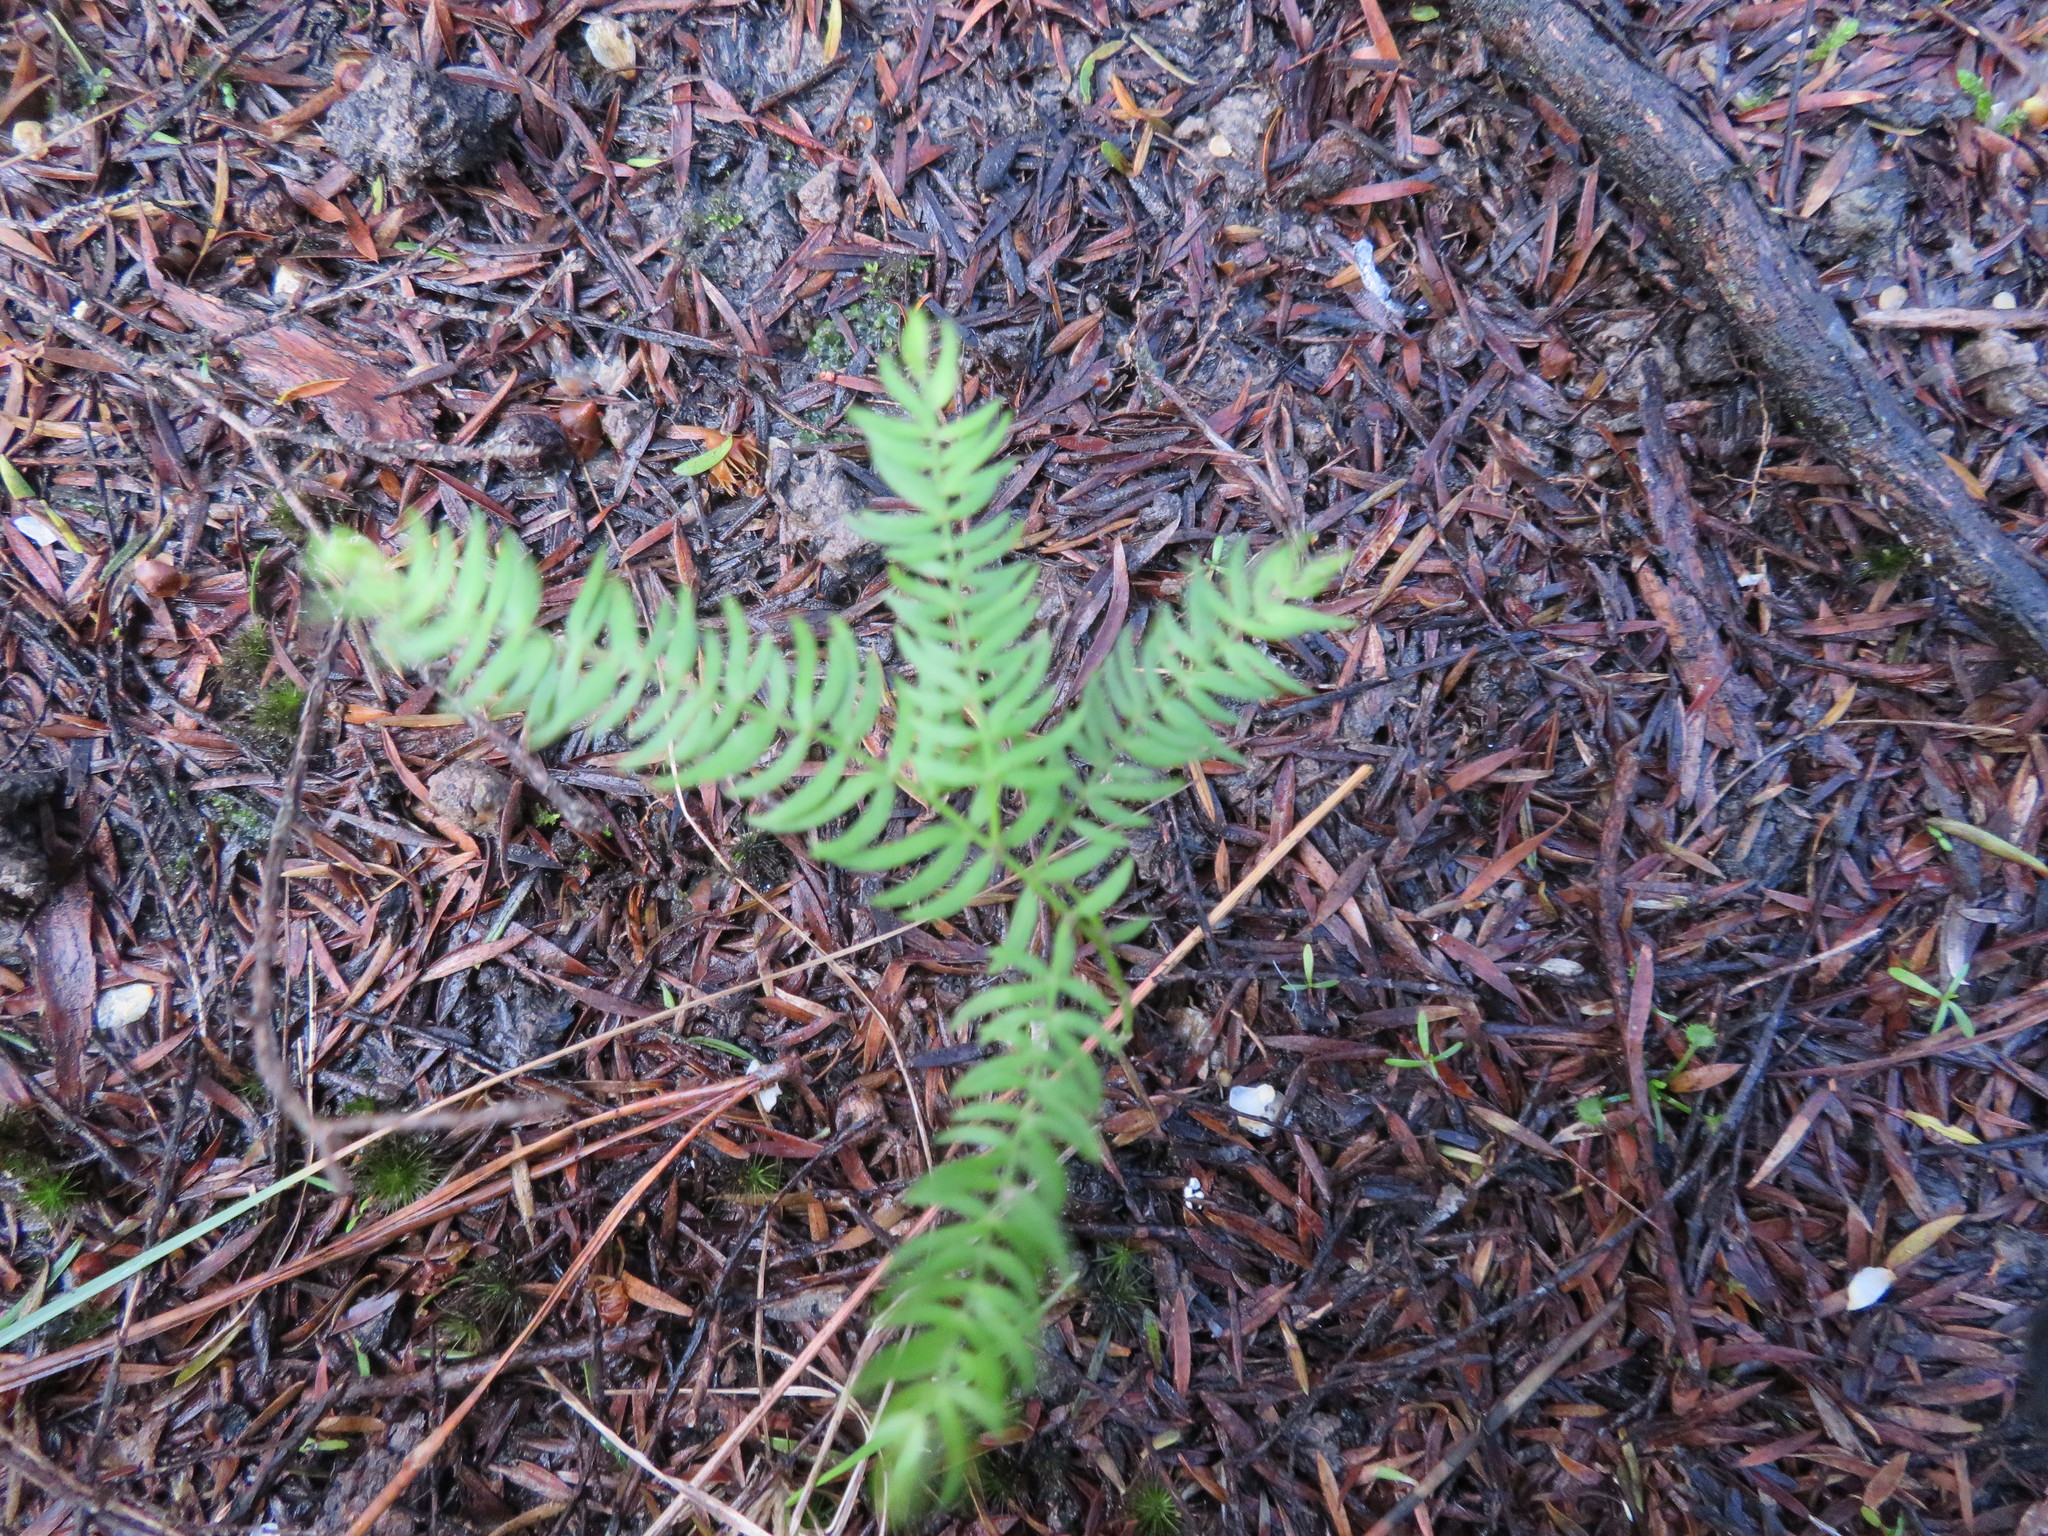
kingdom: Plantae
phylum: Tracheophyta
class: Liliopsida
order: Asparagales
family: Asparagaceae
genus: Asparagus
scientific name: Asparagus scandens
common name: Asparagus-fern
